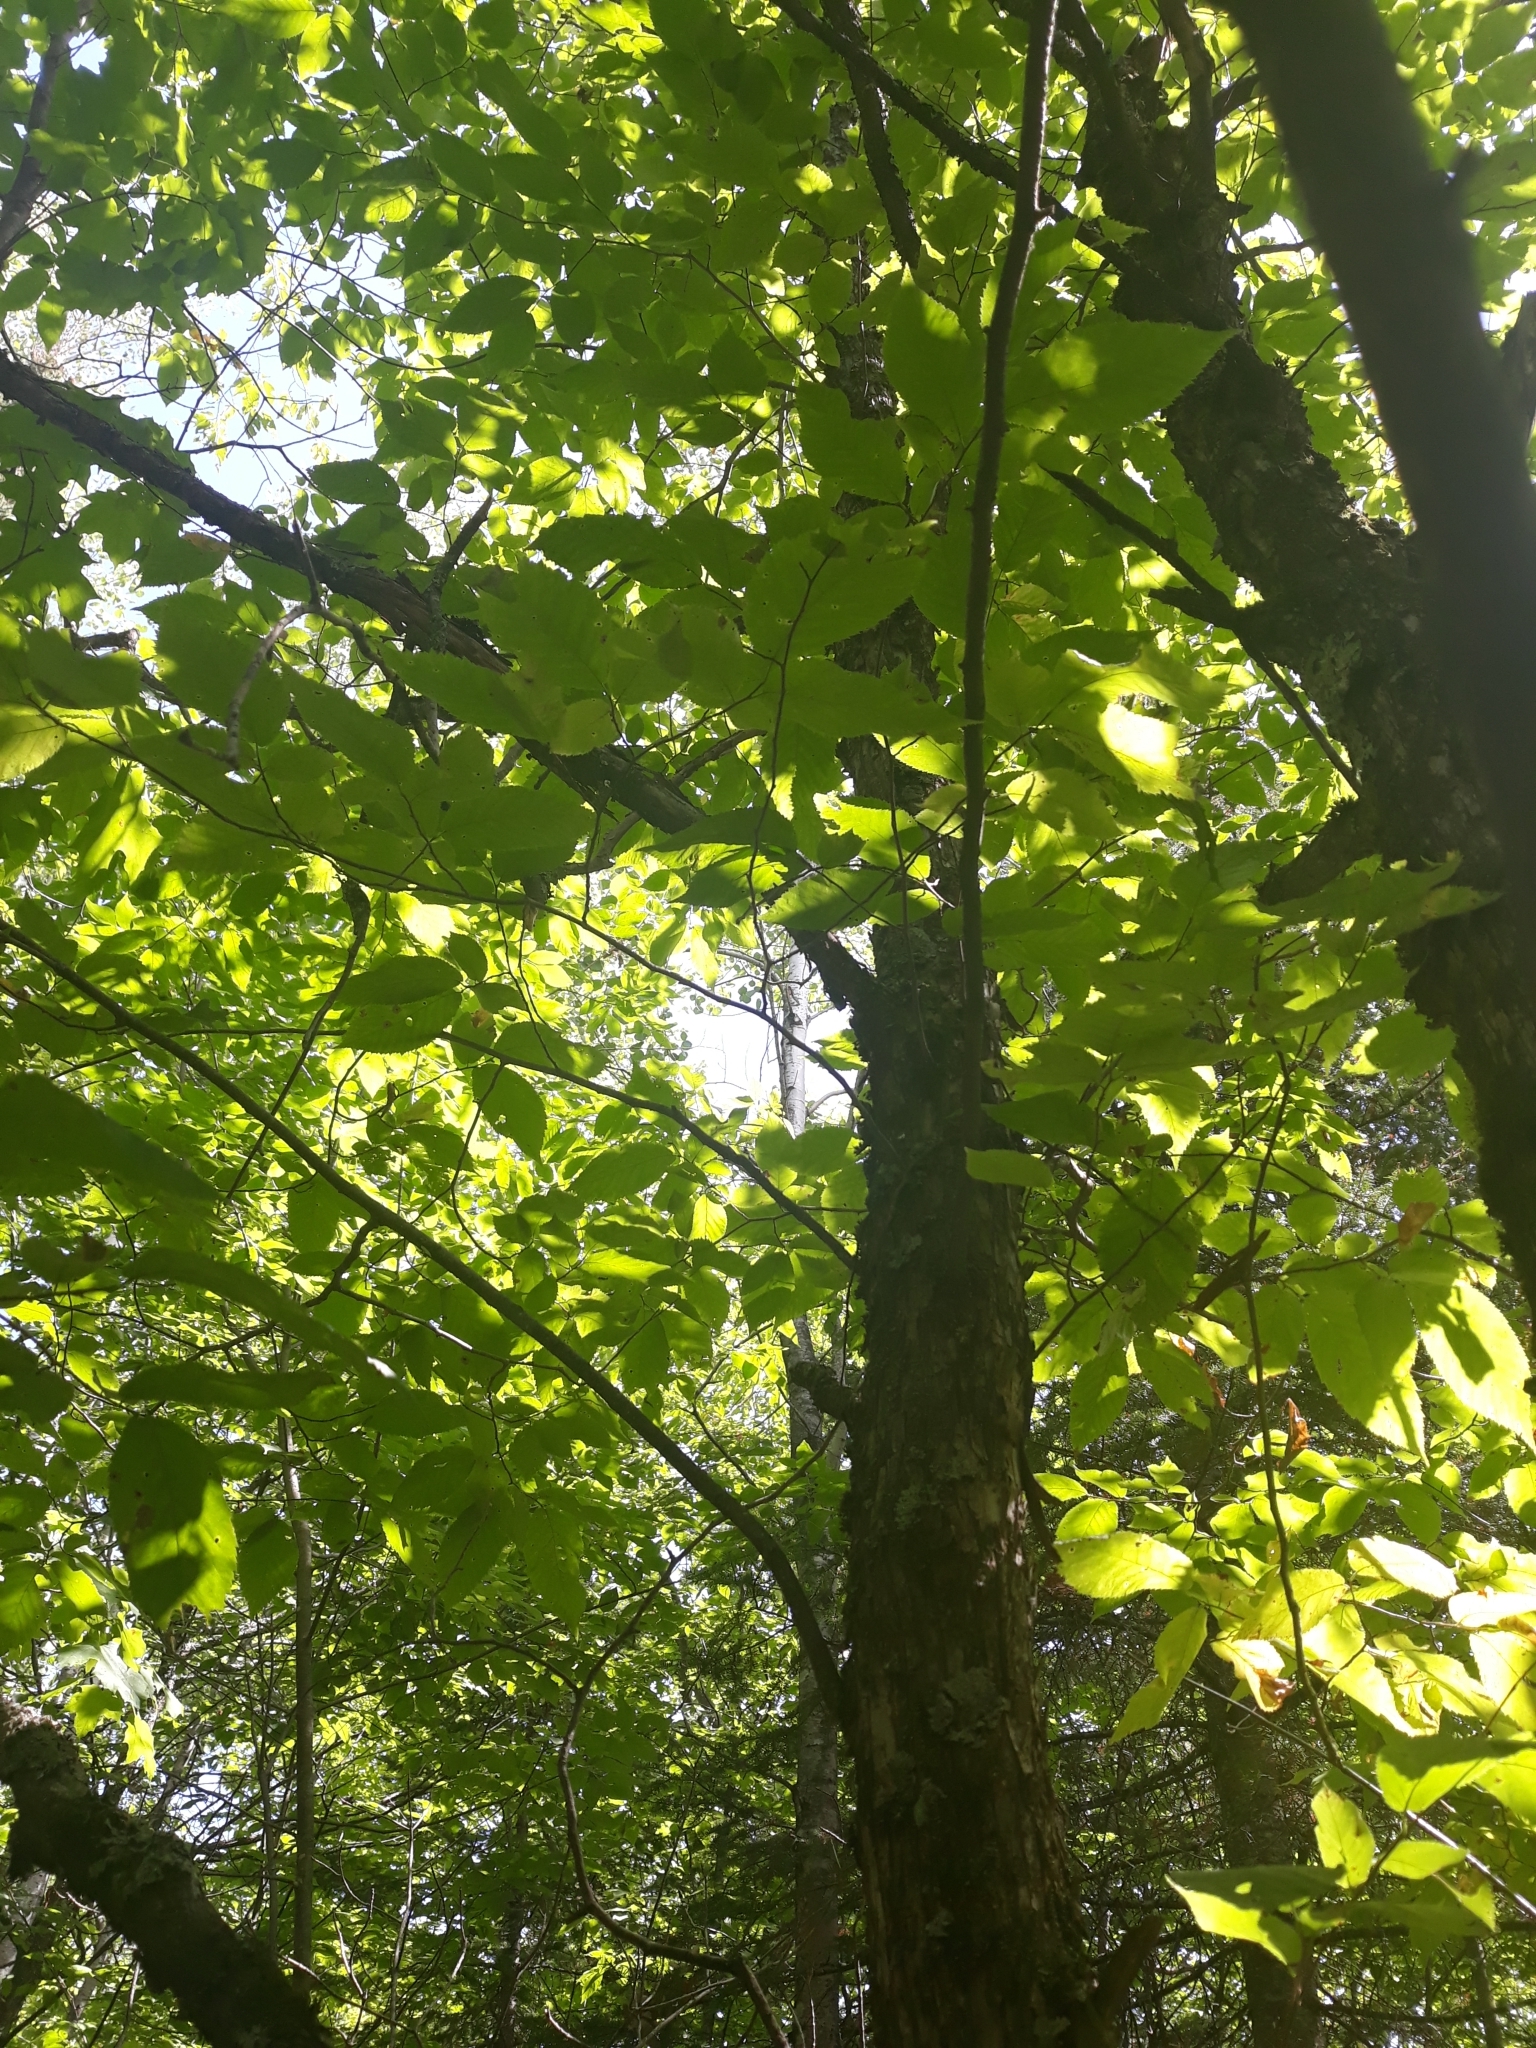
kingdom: Plantae
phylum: Tracheophyta
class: Magnoliopsida
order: Fagales
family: Betulaceae
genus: Ostrya
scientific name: Ostrya virginiana
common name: Ironwood
